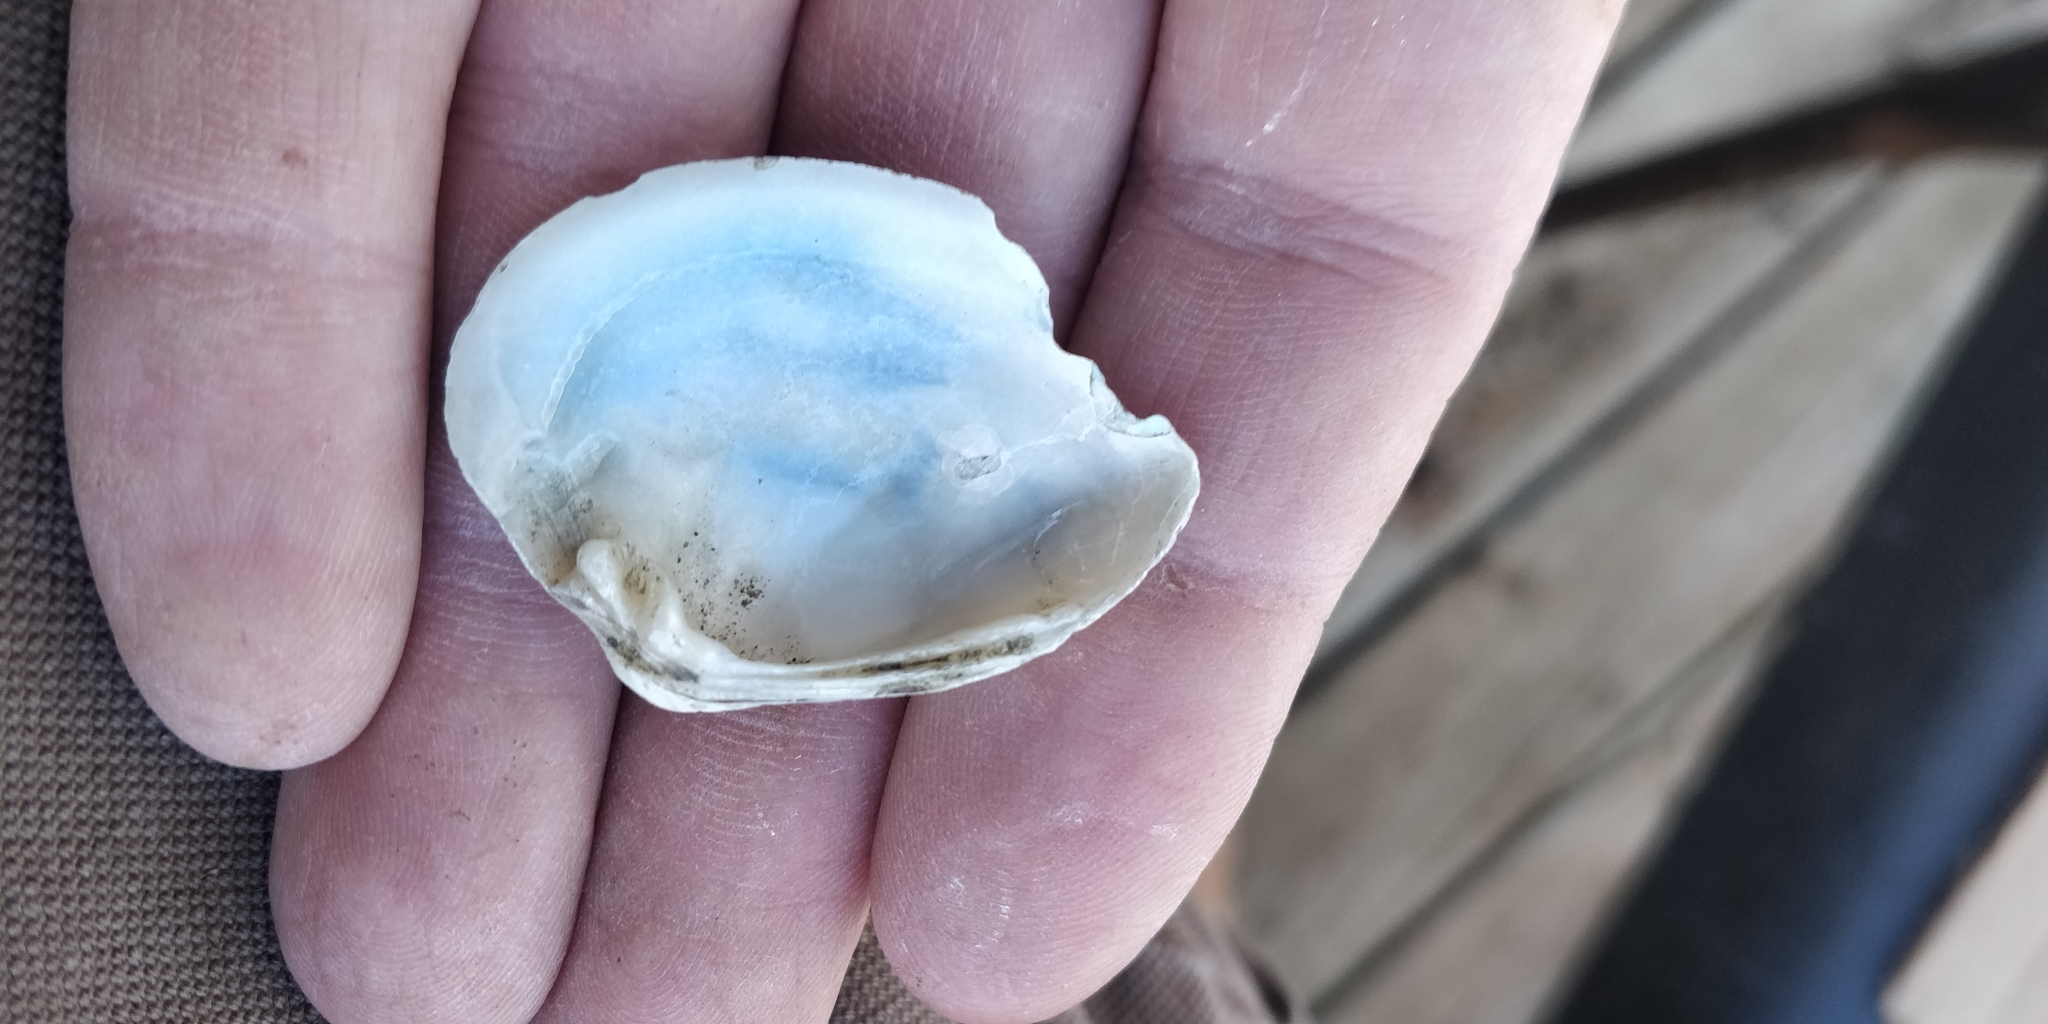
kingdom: Animalia
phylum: Mollusca
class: Bivalvia
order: Unionida
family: Unionidae
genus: Truncilla
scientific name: Truncilla truncata
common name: Deertoe
